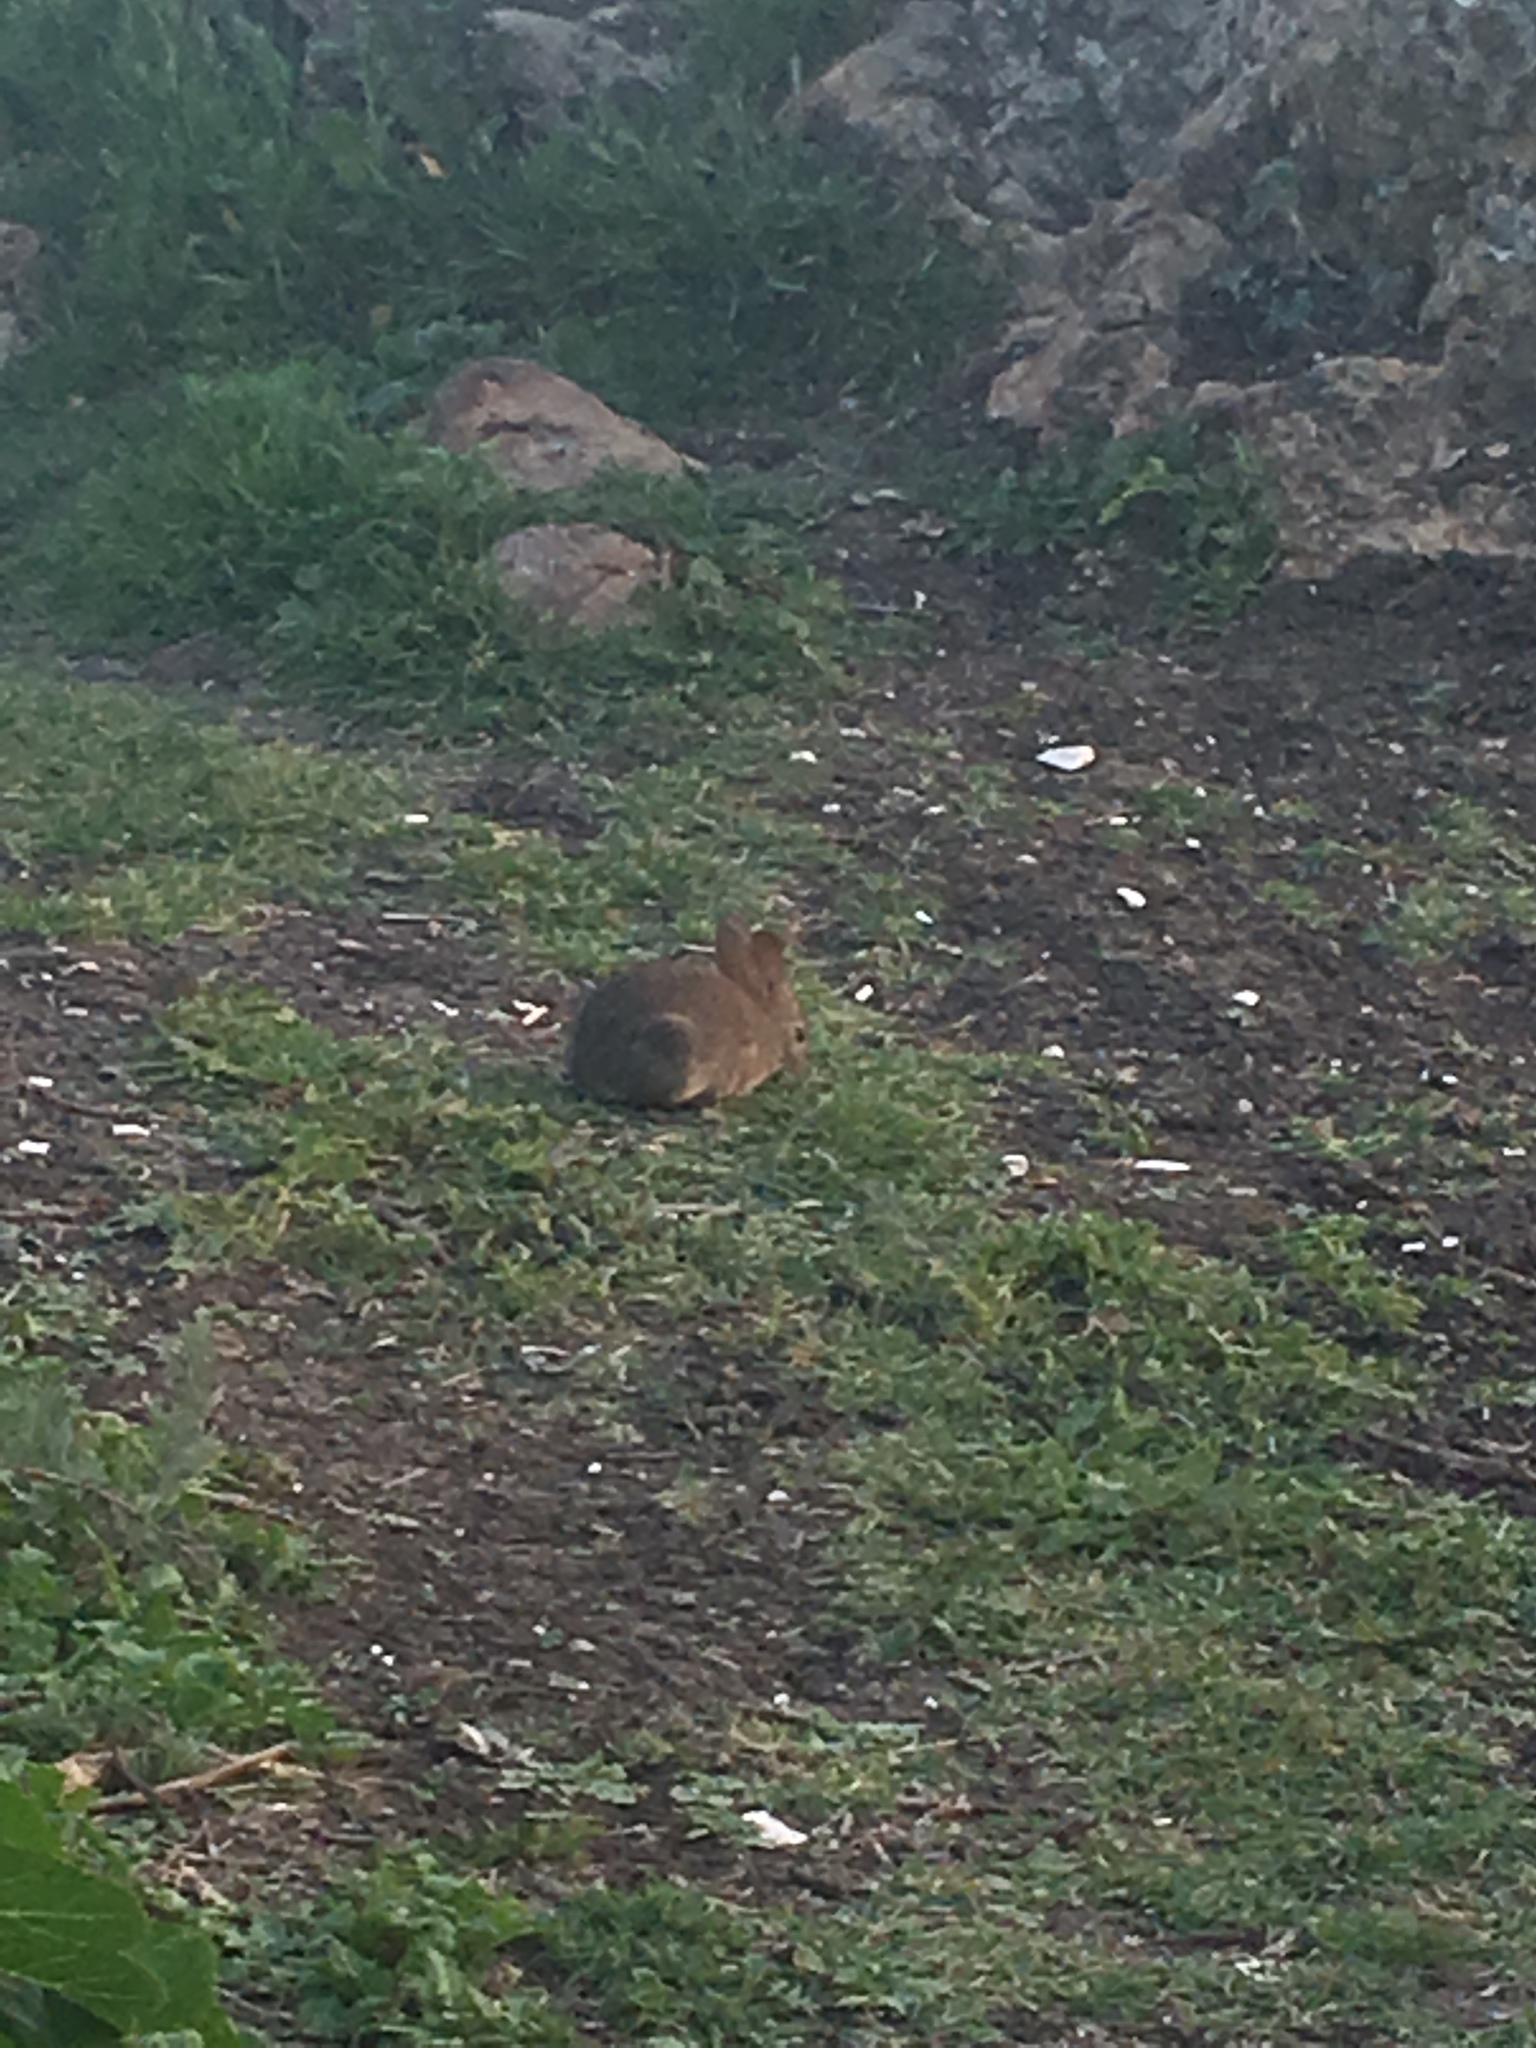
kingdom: Animalia
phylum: Chordata
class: Mammalia
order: Lagomorpha
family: Leporidae
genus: Sylvilagus
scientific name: Sylvilagus bachmani
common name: Brush rabbit
